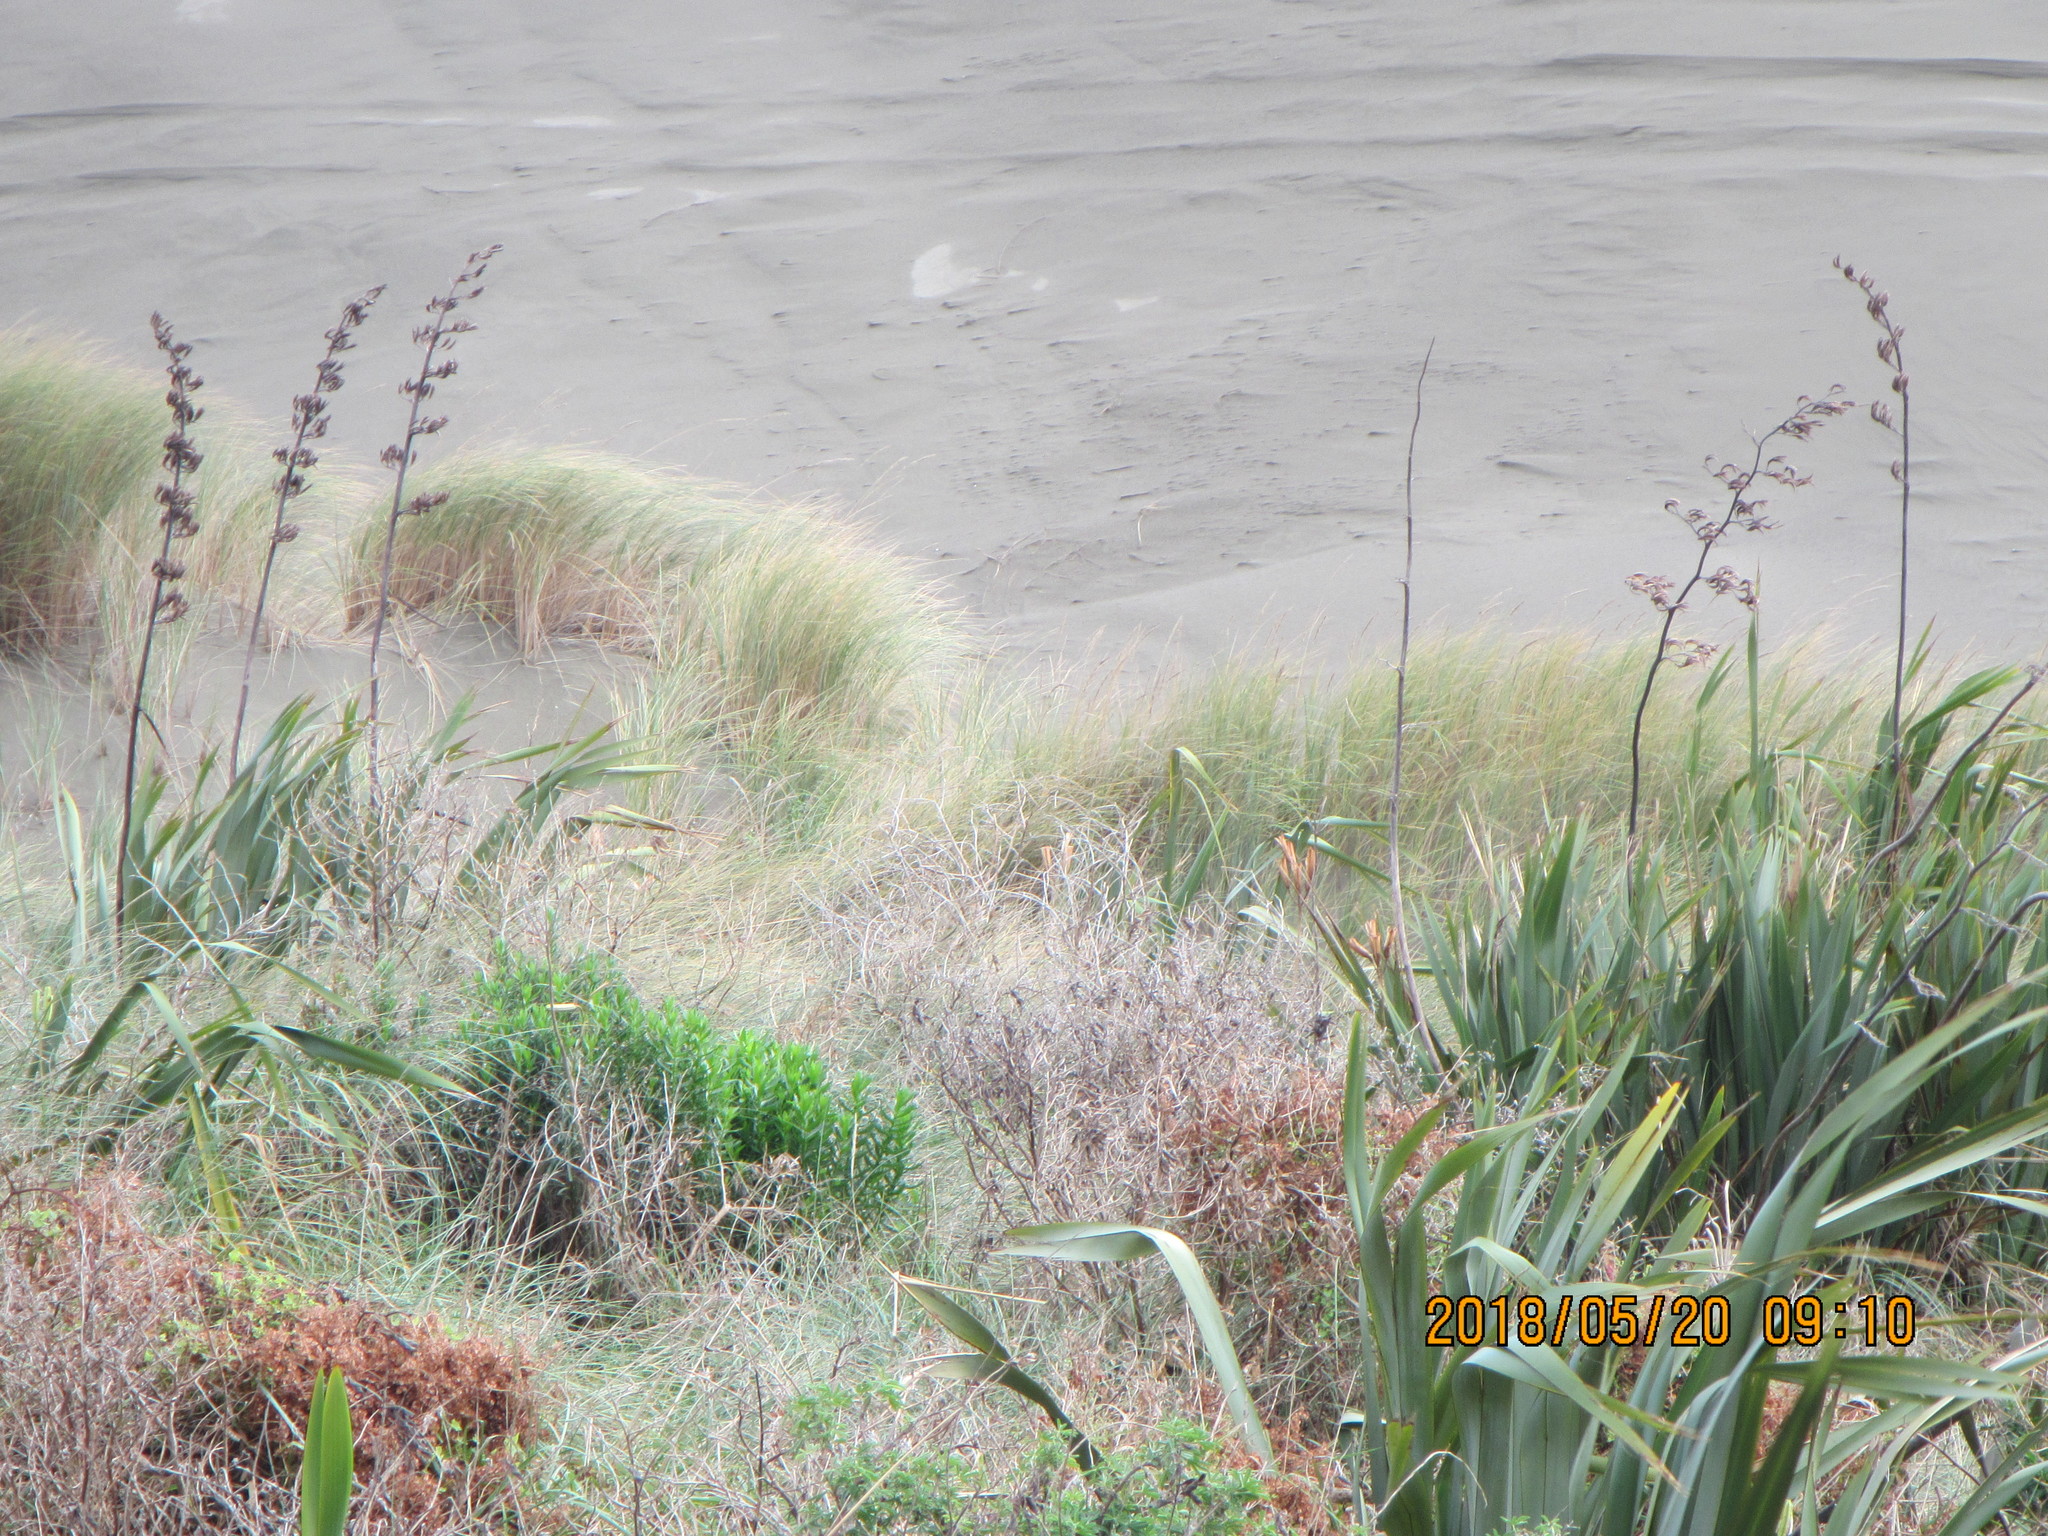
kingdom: Plantae
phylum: Tracheophyta
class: Liliopsida
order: Asparagales
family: Asphodelaceae
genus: Phormium
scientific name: Phormium tenax
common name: New zealand flax
